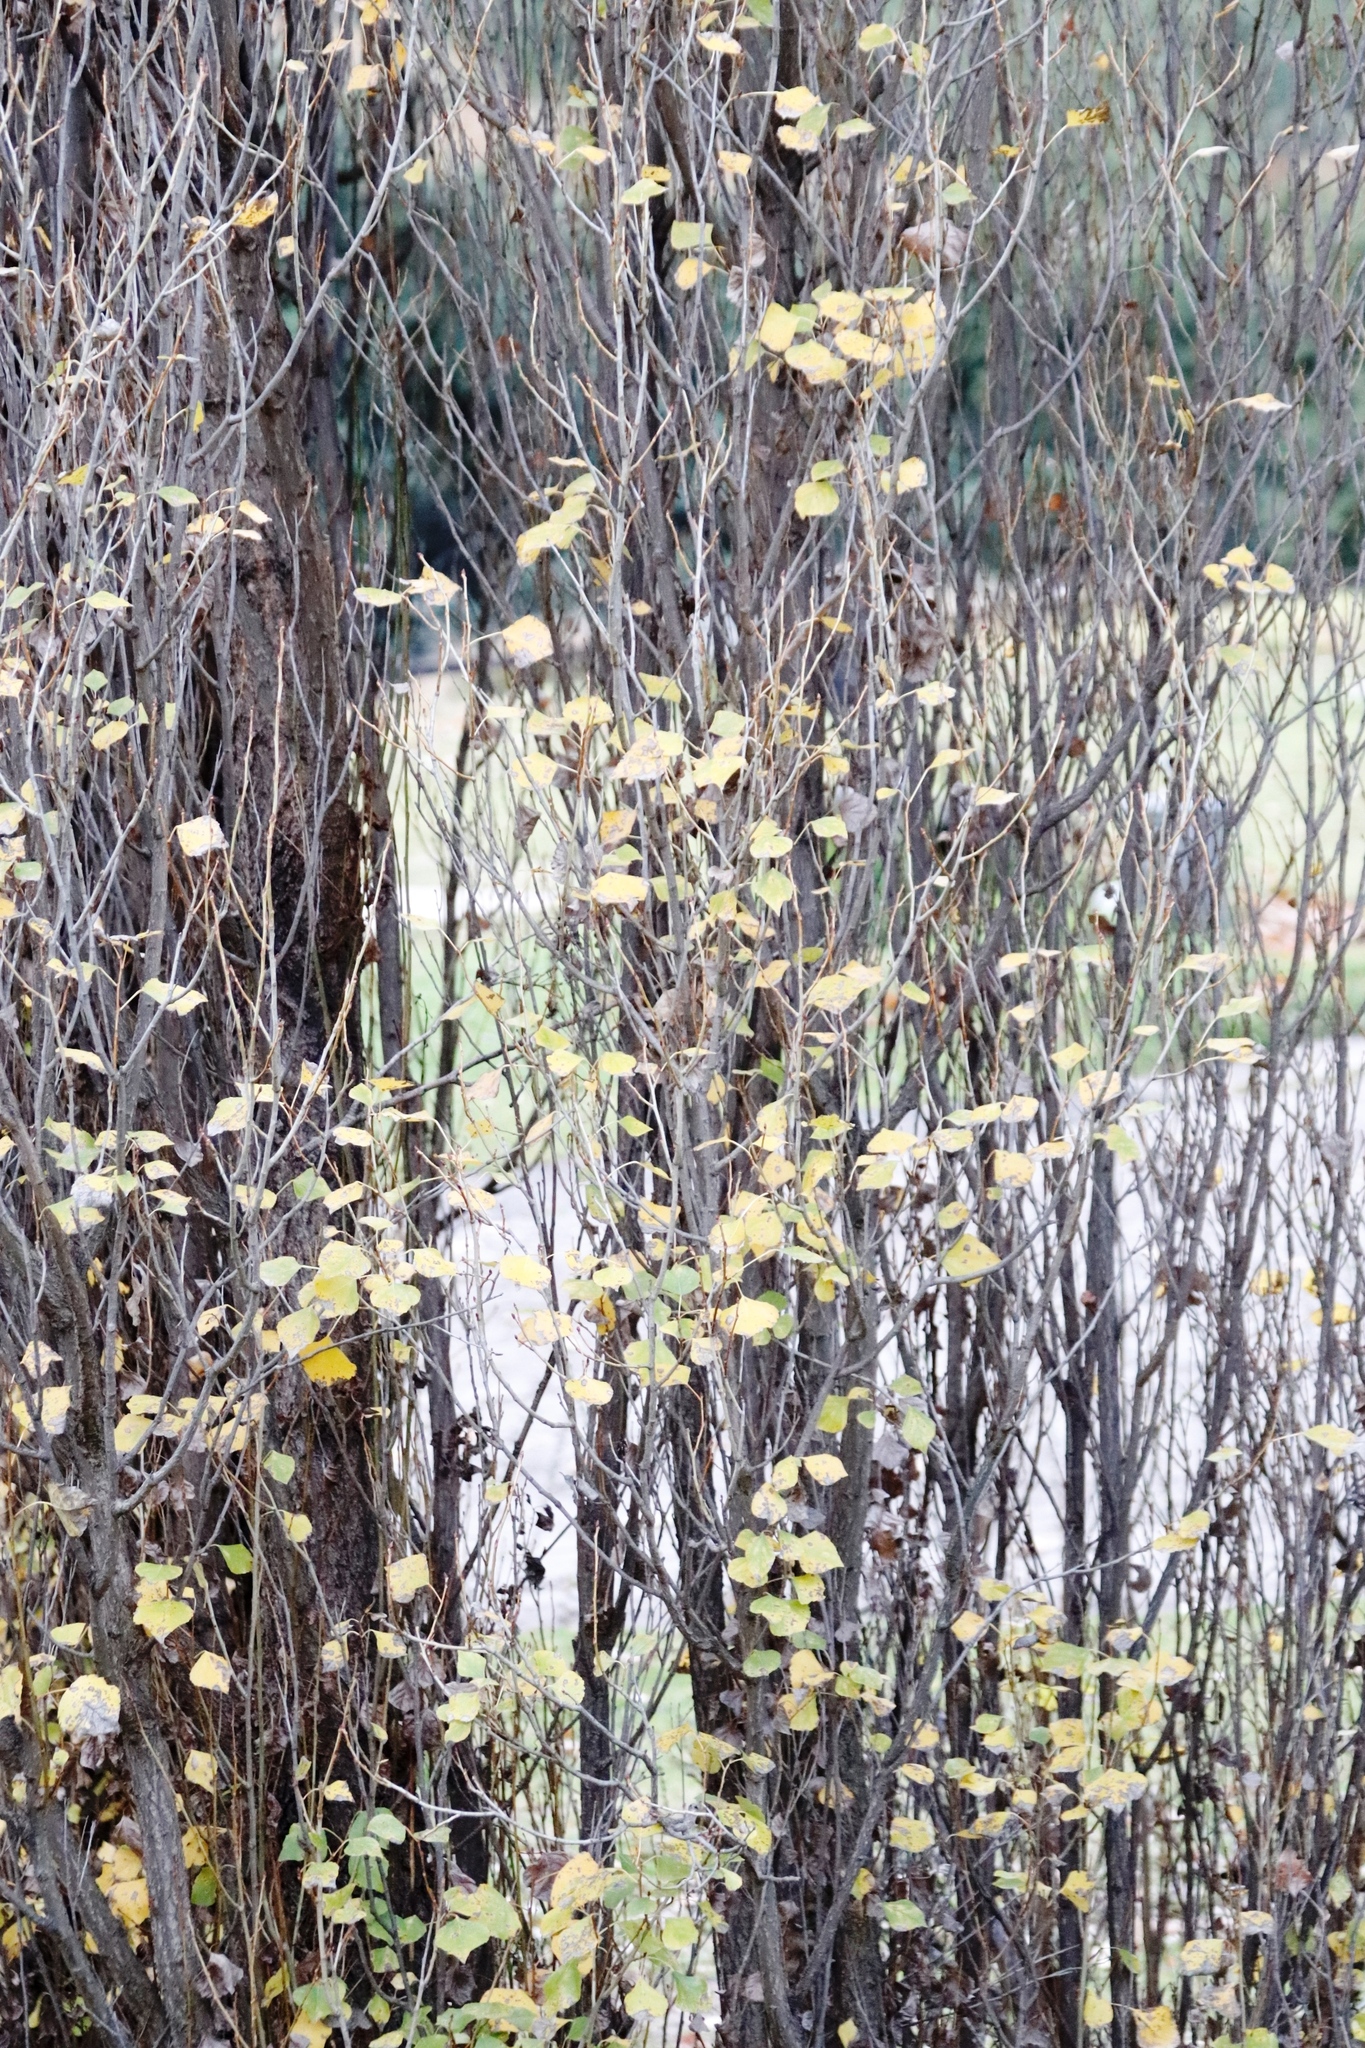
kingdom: Plantae
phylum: Tracheophyta
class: Magnoliopsida
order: Malpighiales
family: Salicaceae
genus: Populus
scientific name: Populus nigra
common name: Black poplar
